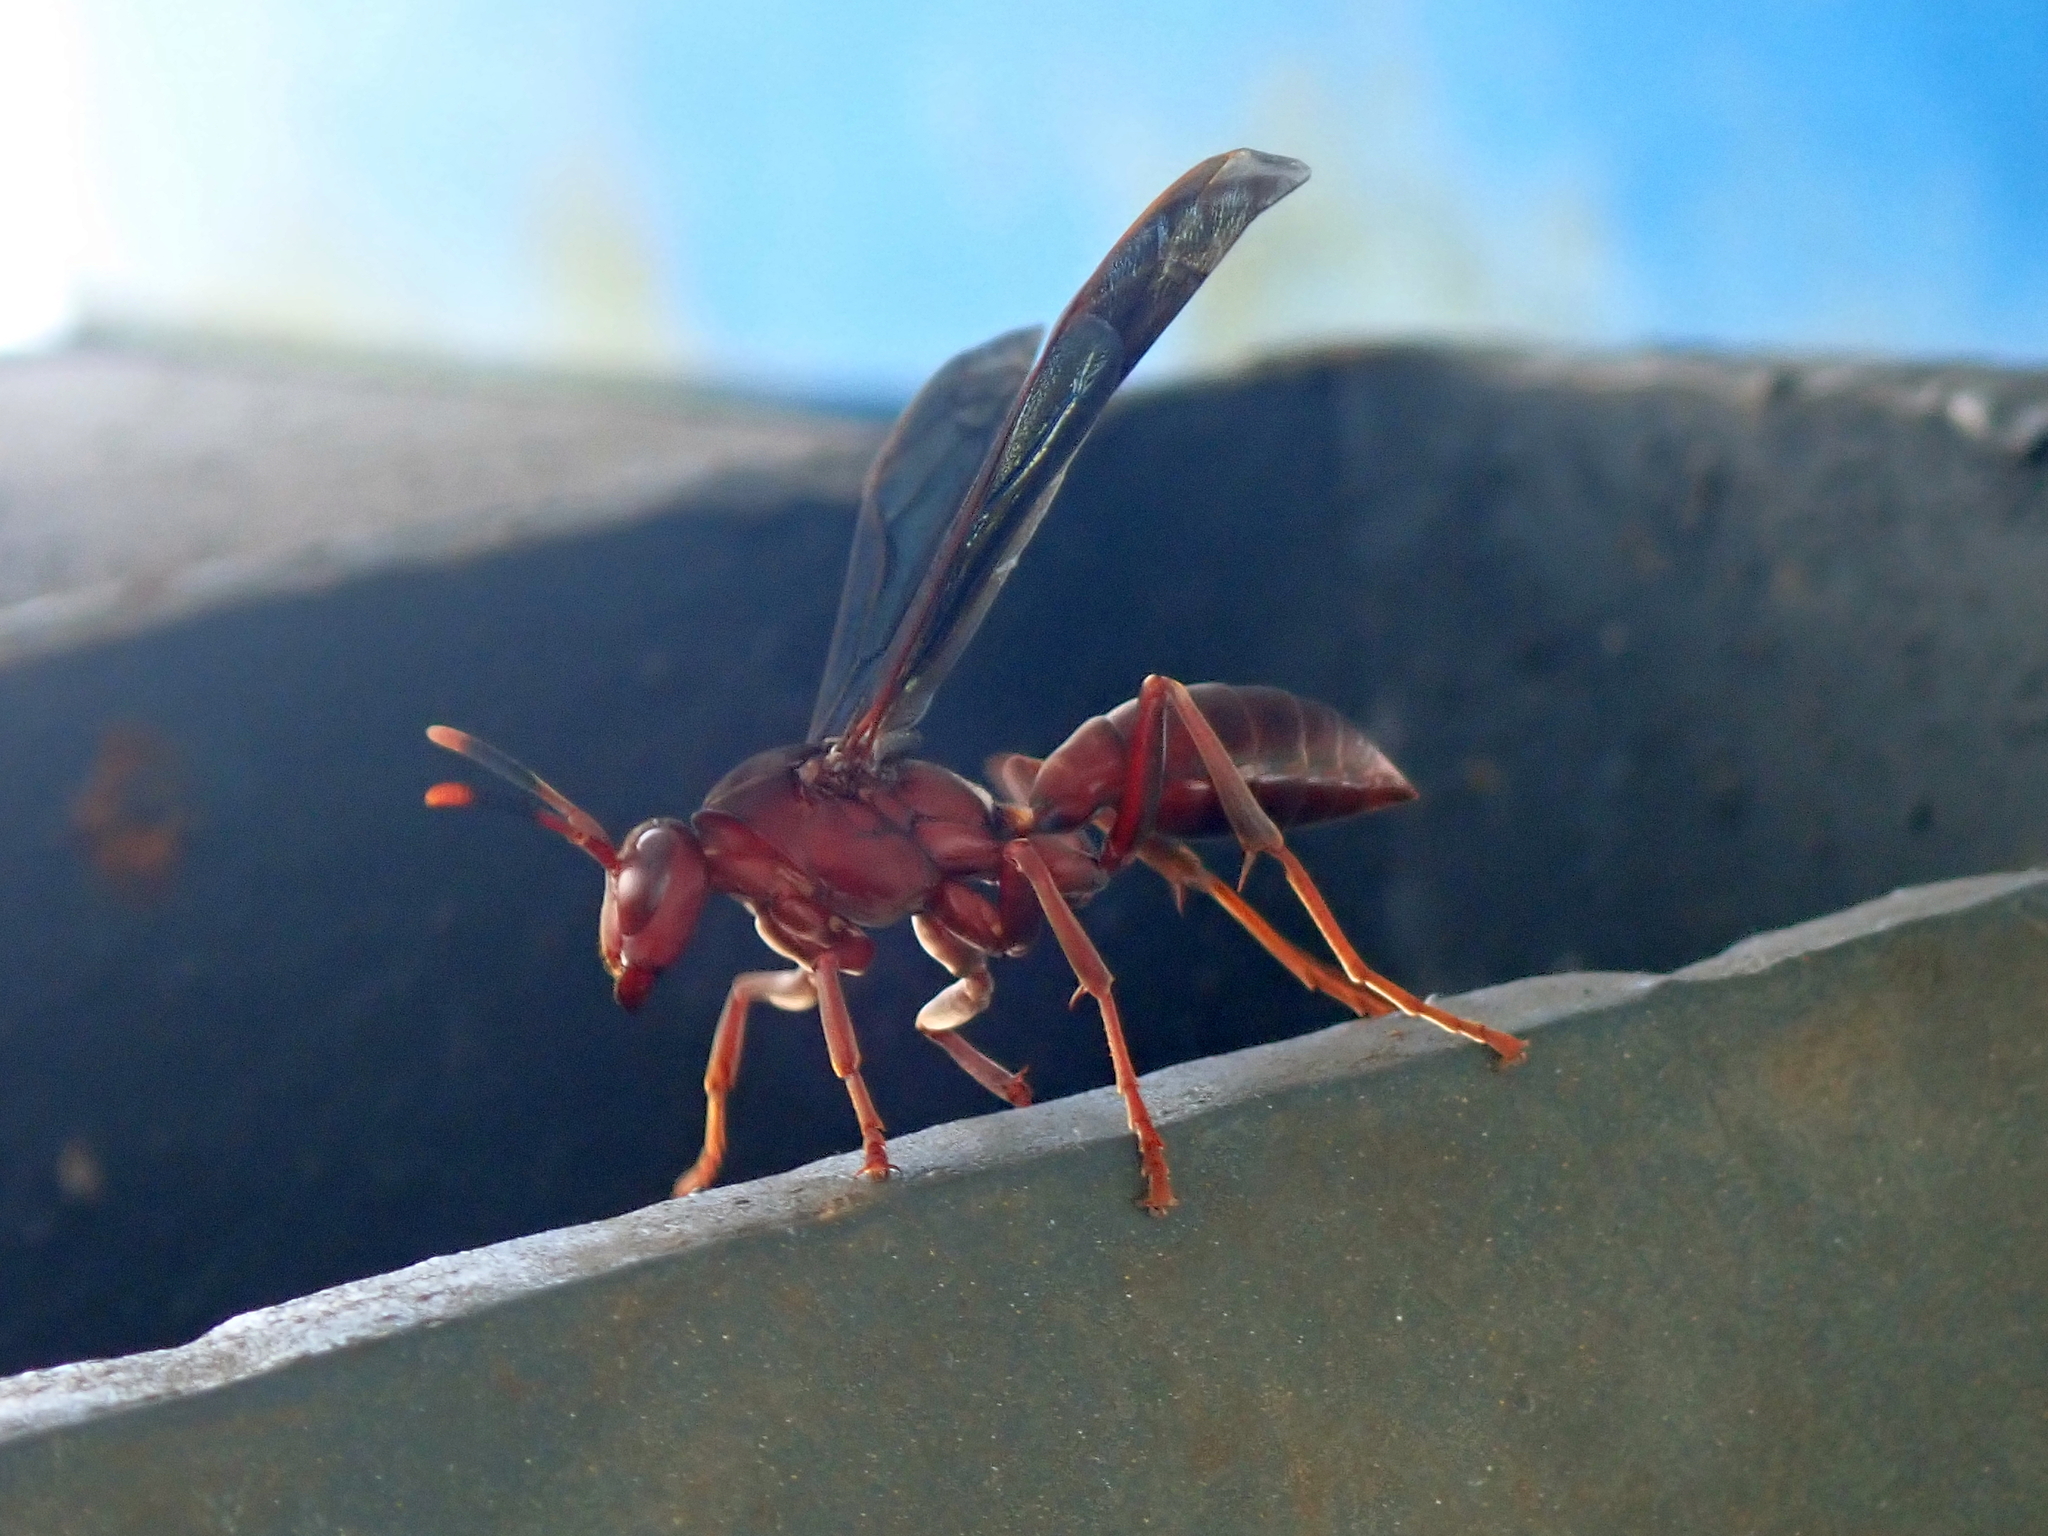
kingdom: Animalia
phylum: Arthropoda
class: Insecta
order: Hymenoptera
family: Eumenidae
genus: Polistes
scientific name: Polistes canadensis
